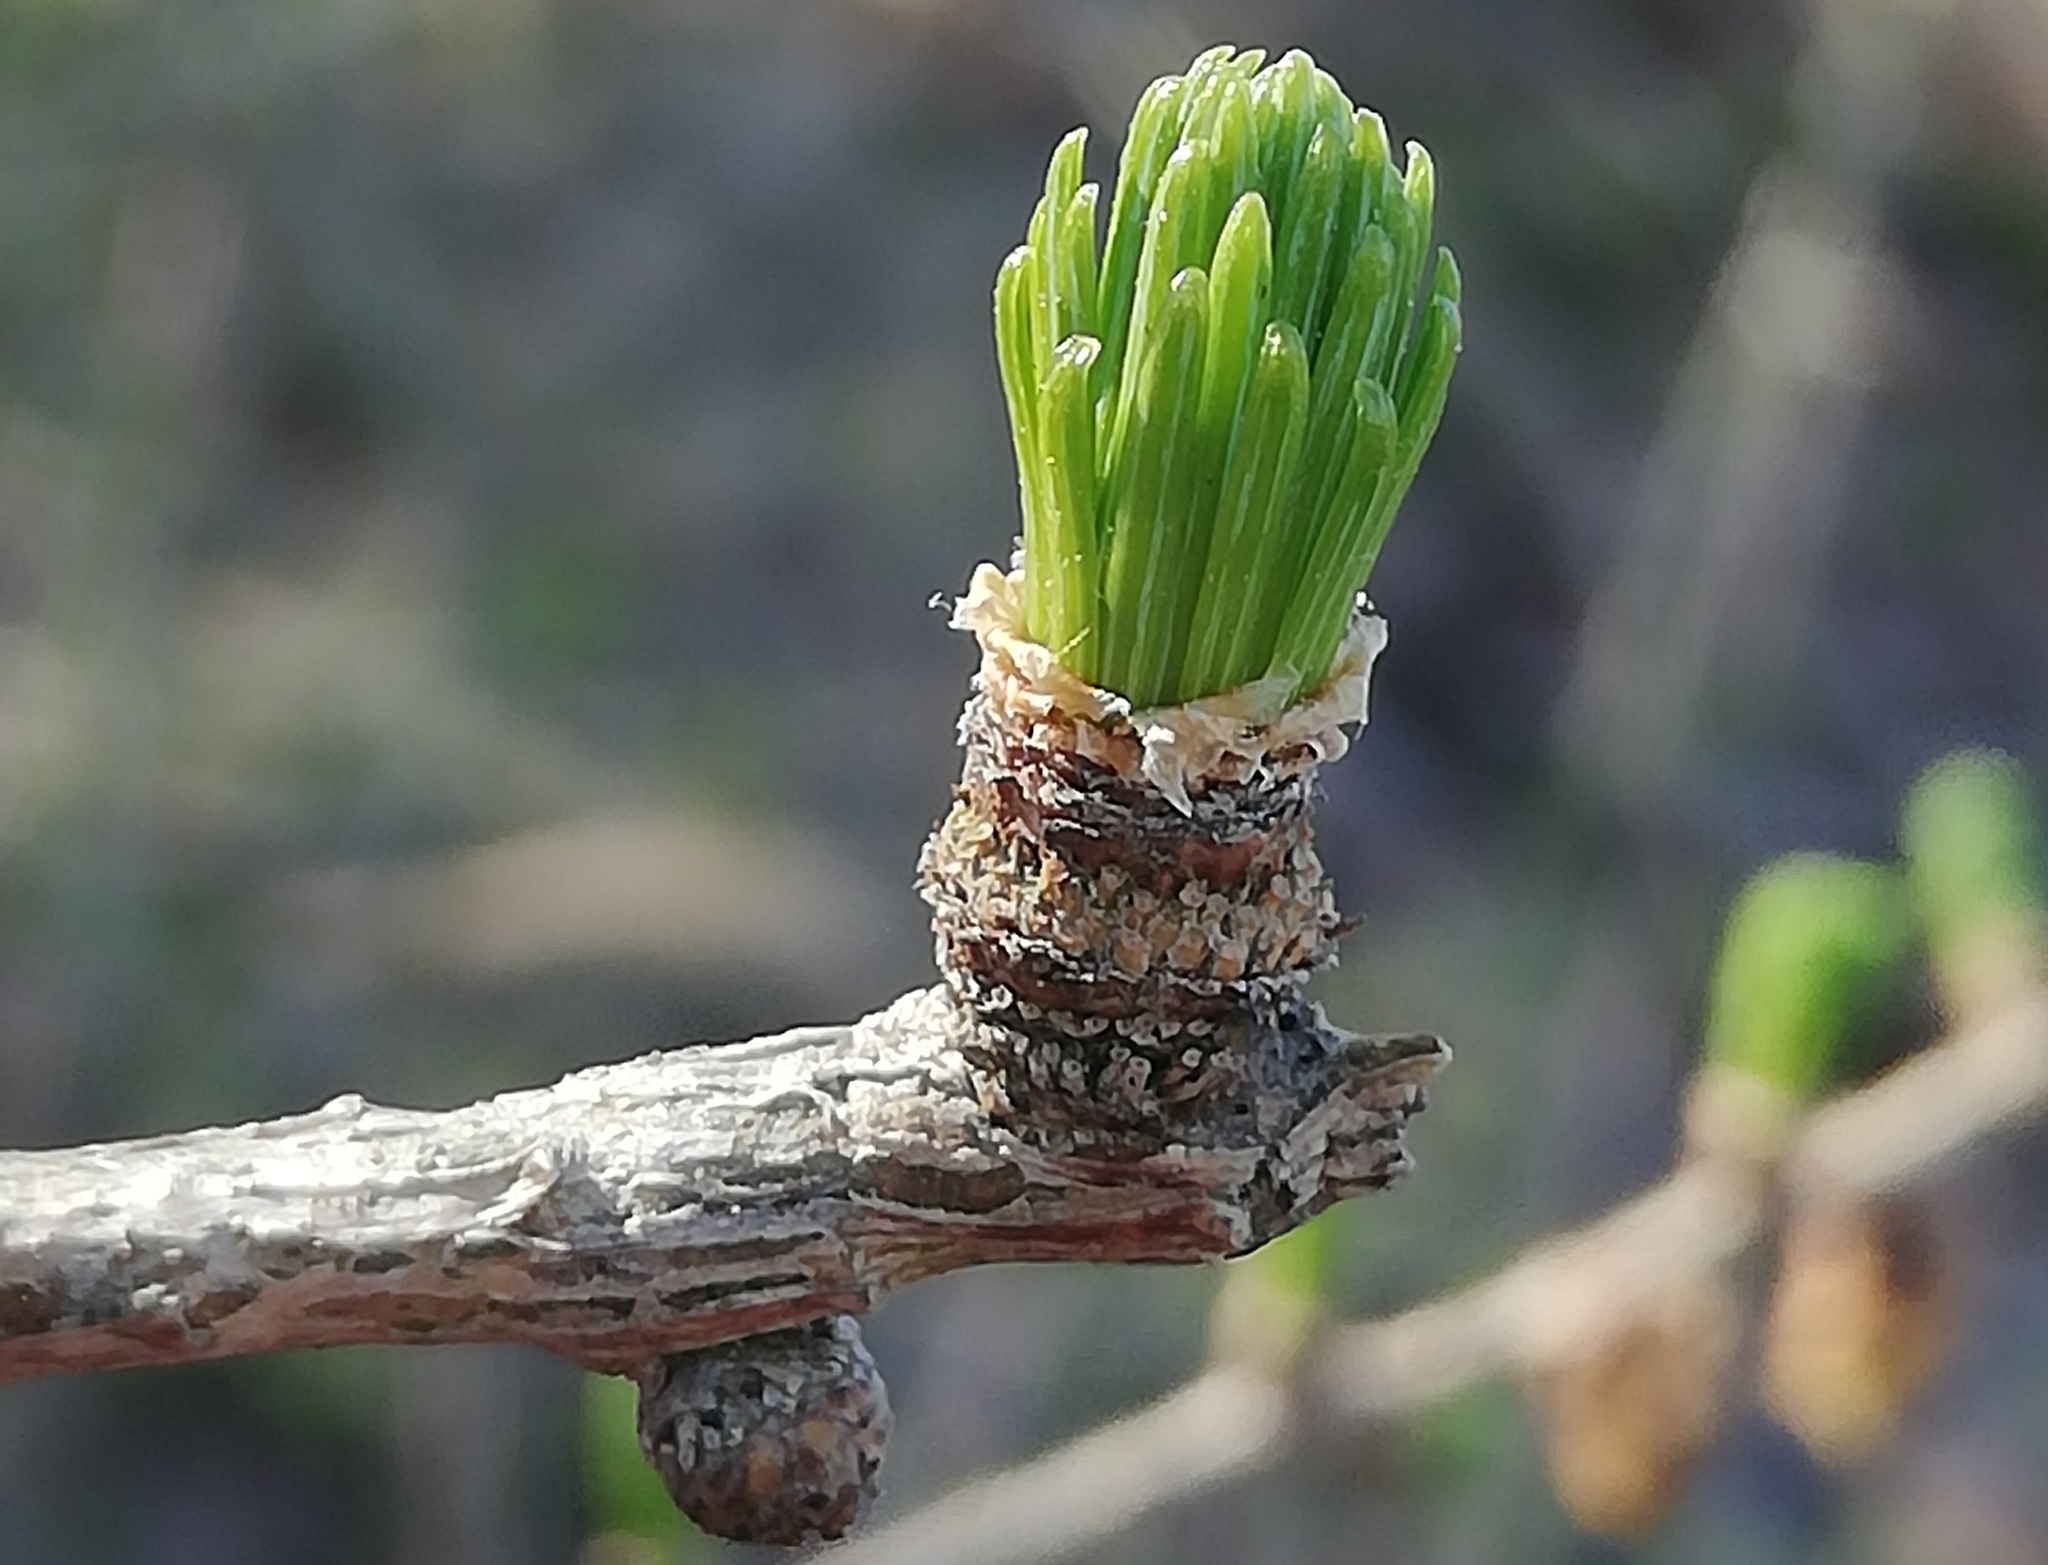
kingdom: Plantae
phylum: Tracheophyta
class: Pinopsida
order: Pinales
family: Pinaceae
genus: Larix
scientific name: Larix decidua
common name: European larch
